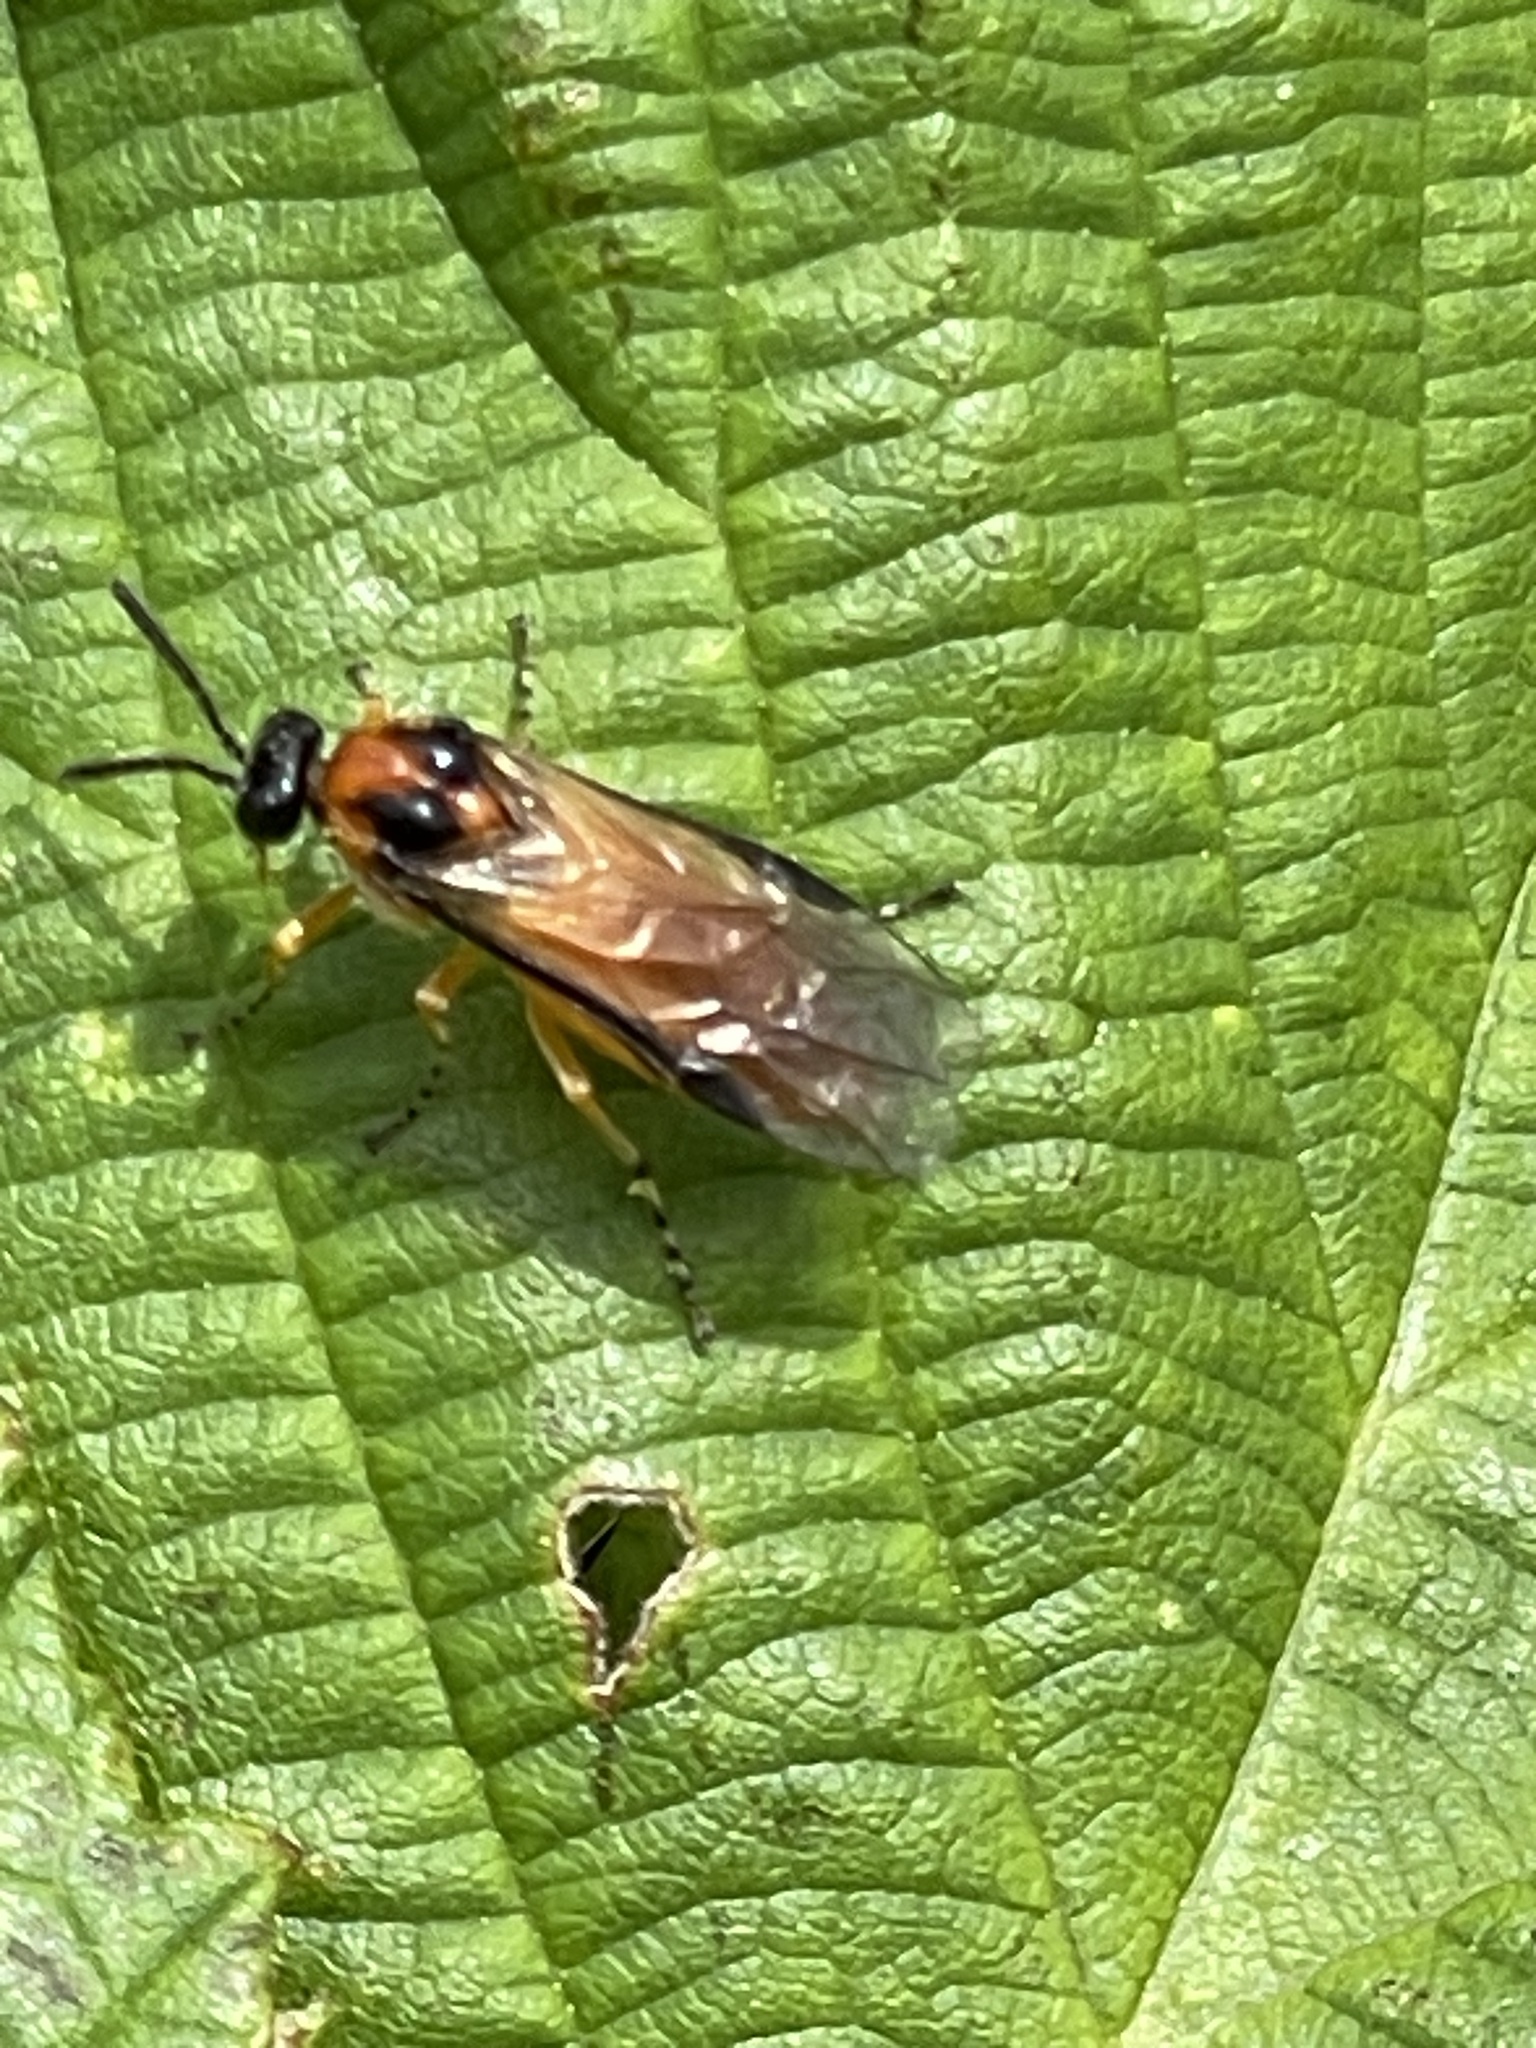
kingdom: Animalia
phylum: Arthropoda
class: Insecta
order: Hymenoptera
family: Tenthredinidae
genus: Athalia
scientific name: Athalia rosae
